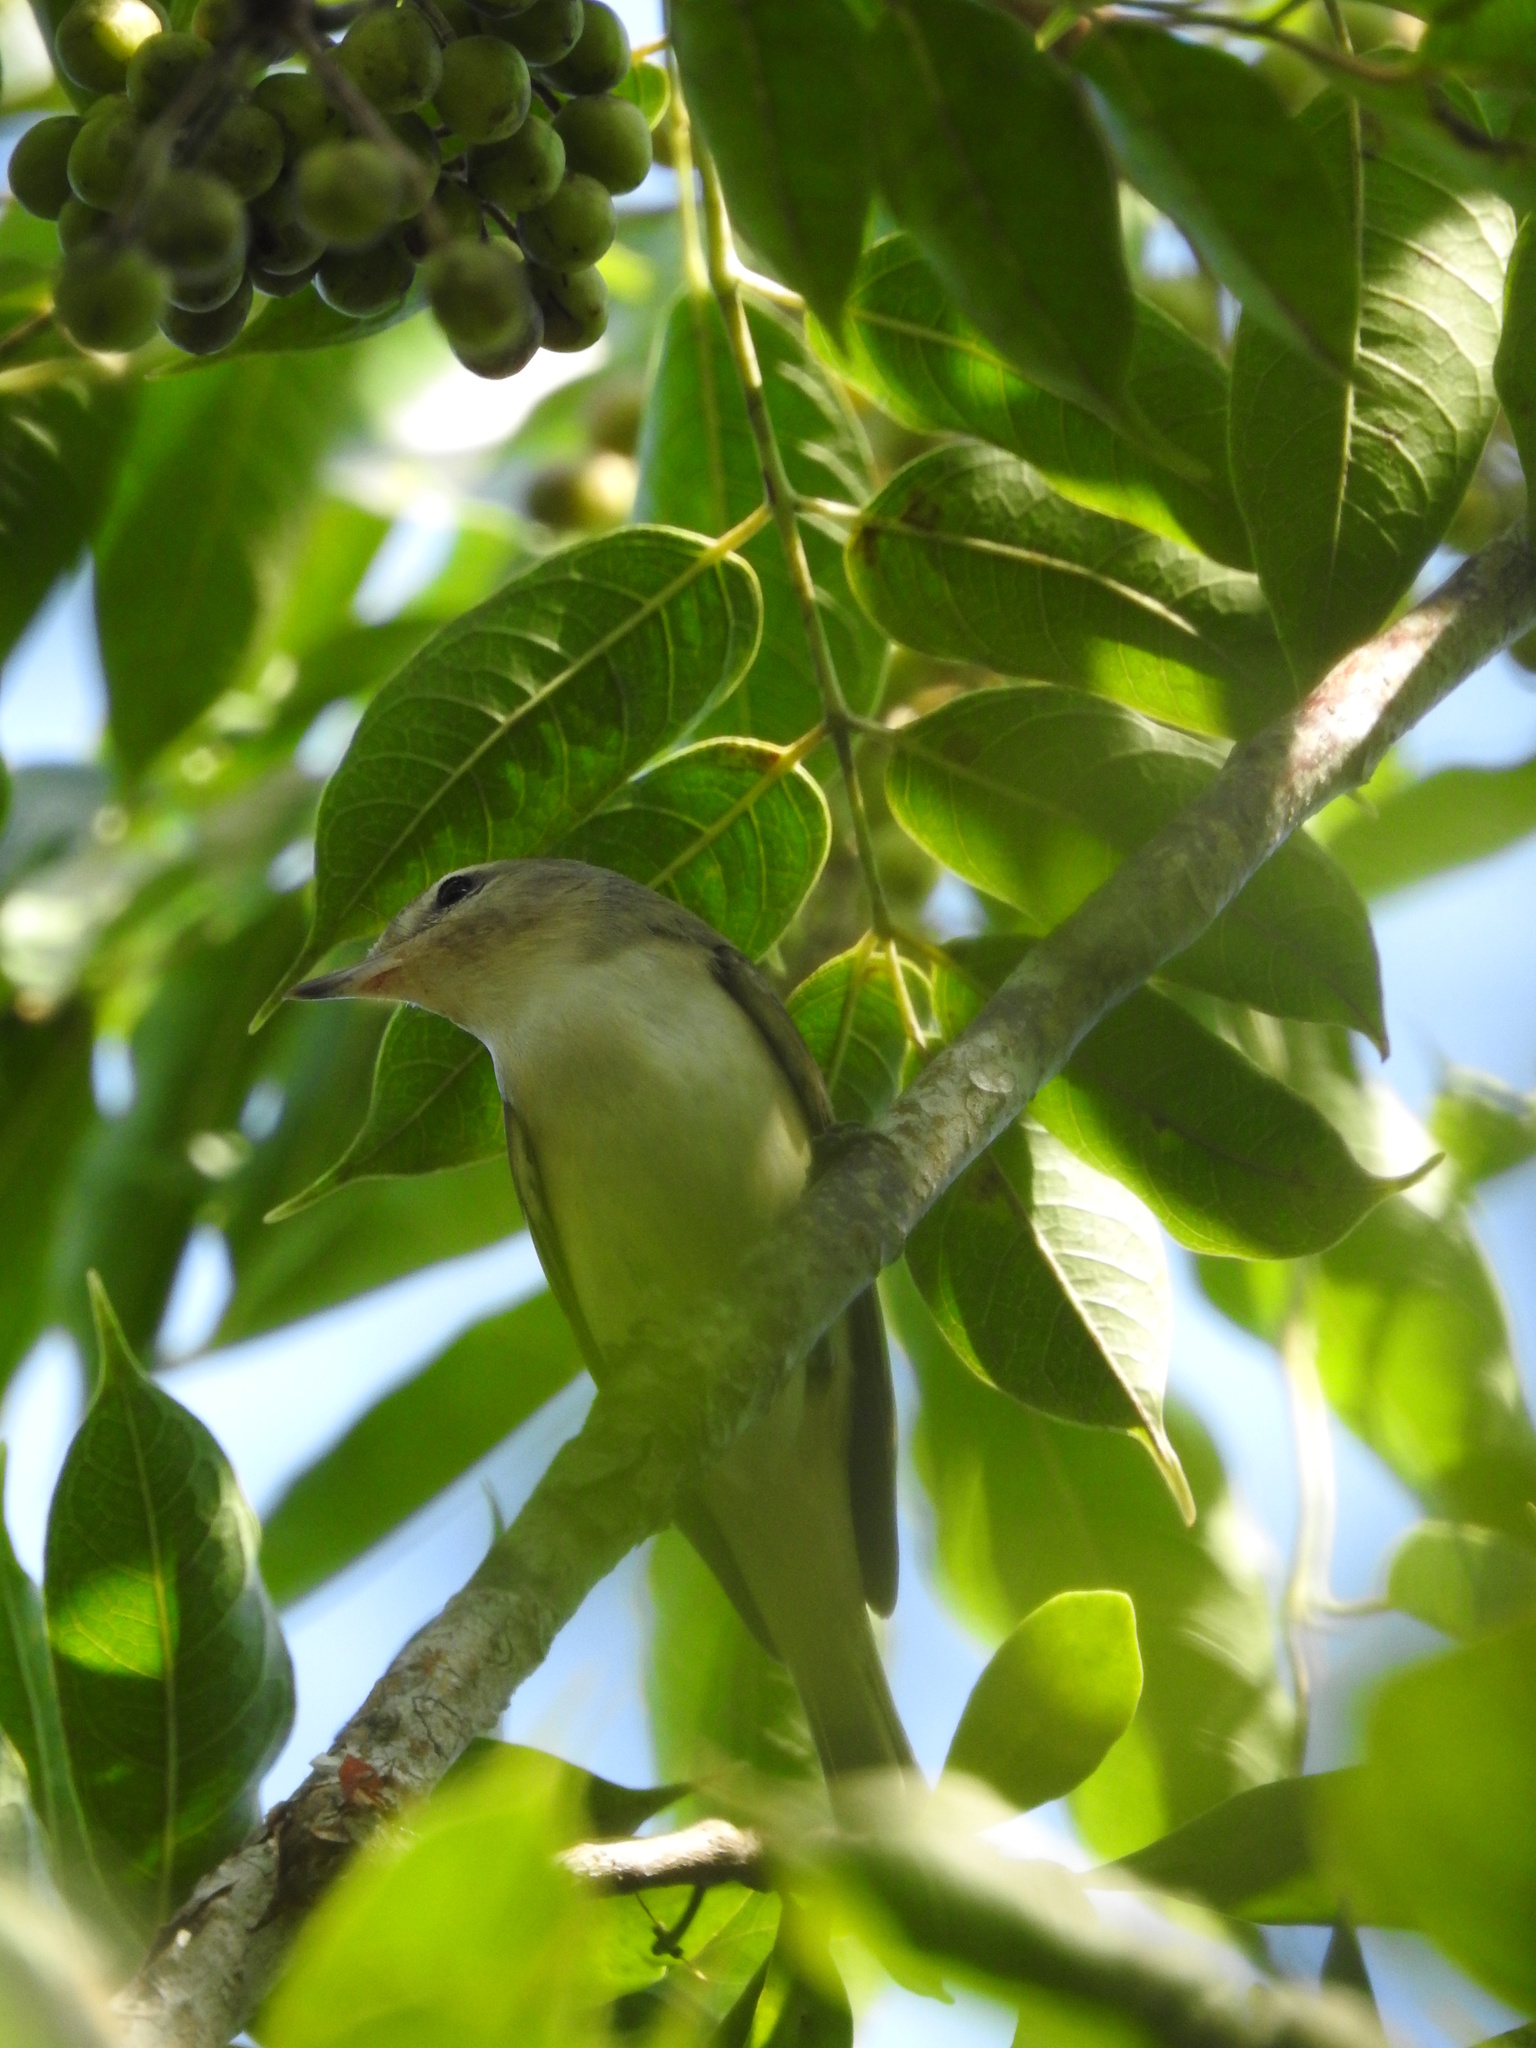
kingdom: Animalia
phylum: Chordata
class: Aves
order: Passeriformes
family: Vireonidae
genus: Vireo
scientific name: Vireo gilvus
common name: Warbling vireo
